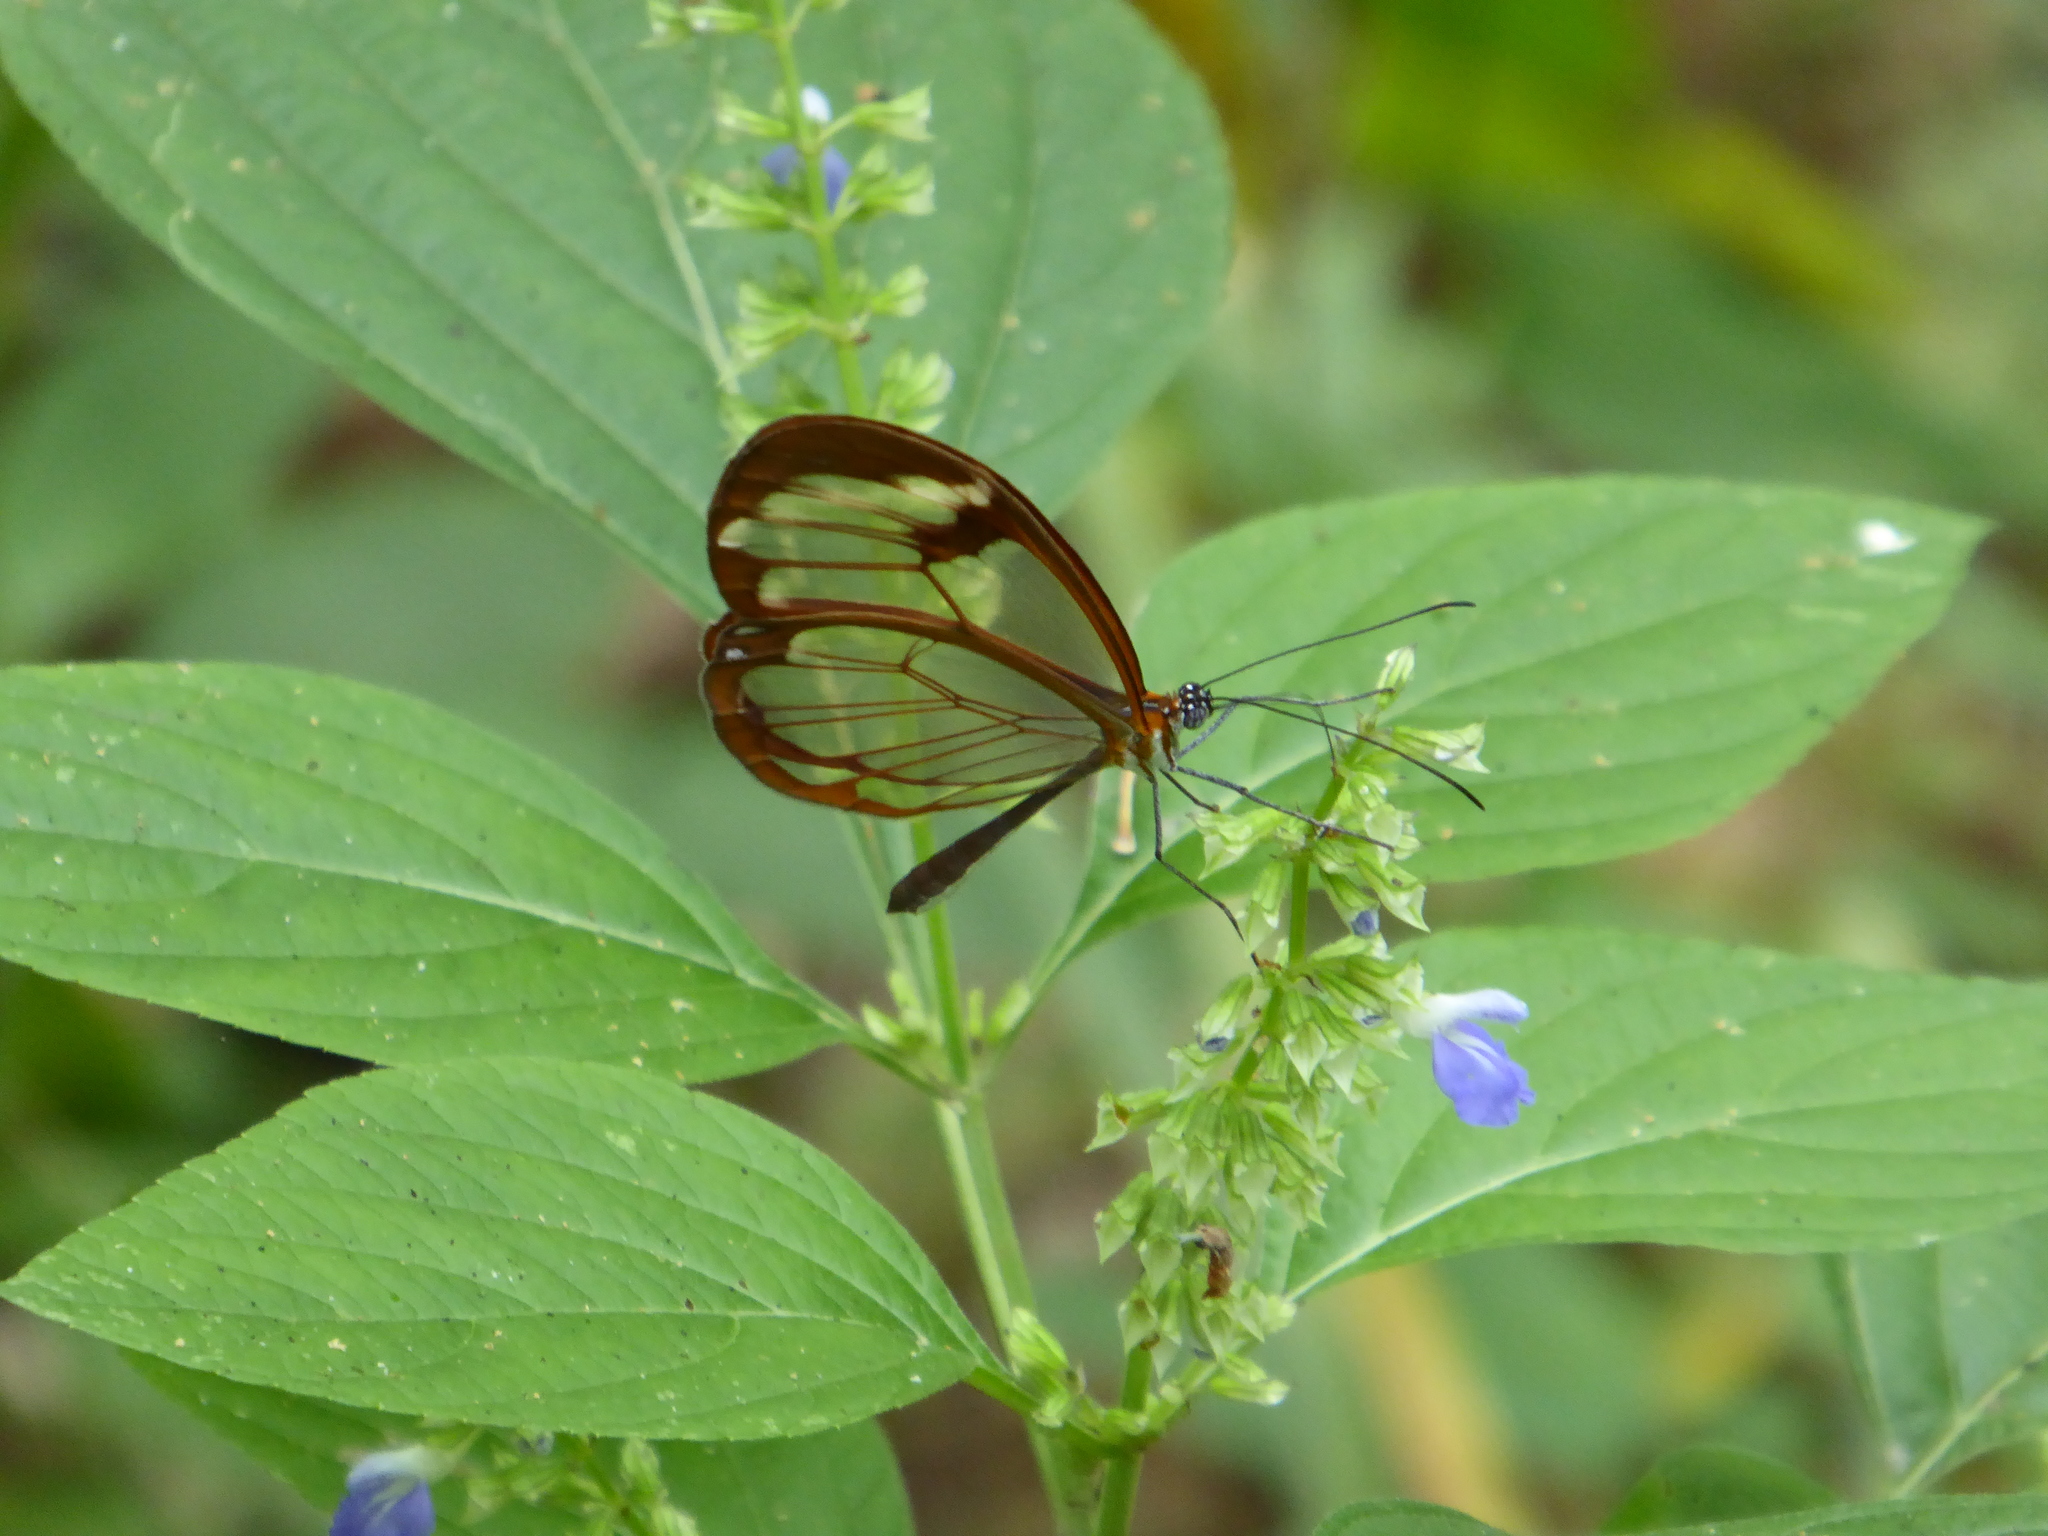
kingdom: Animalia
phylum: Arthropoda
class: Insecta
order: Lepidoptera
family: Nymphalidae
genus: Greta
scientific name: Greta morgane
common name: Thick-tipped greta
